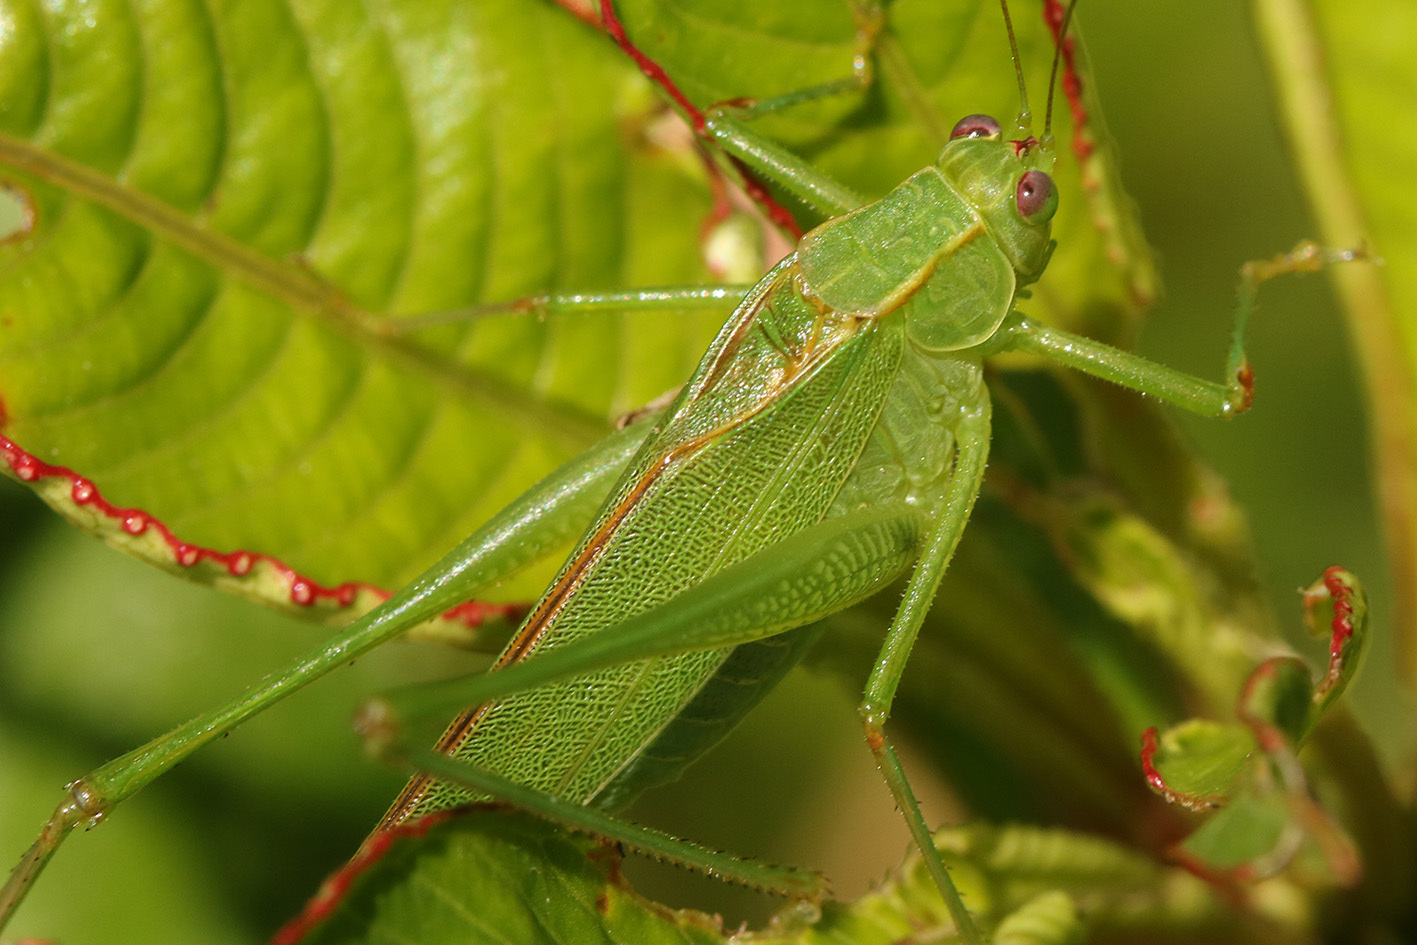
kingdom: Animalia
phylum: Arthropoda
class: Insecta
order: Orthoptera
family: Tettigoniidae
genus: Ligocatinus
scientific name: Ligocatinus spinatus
